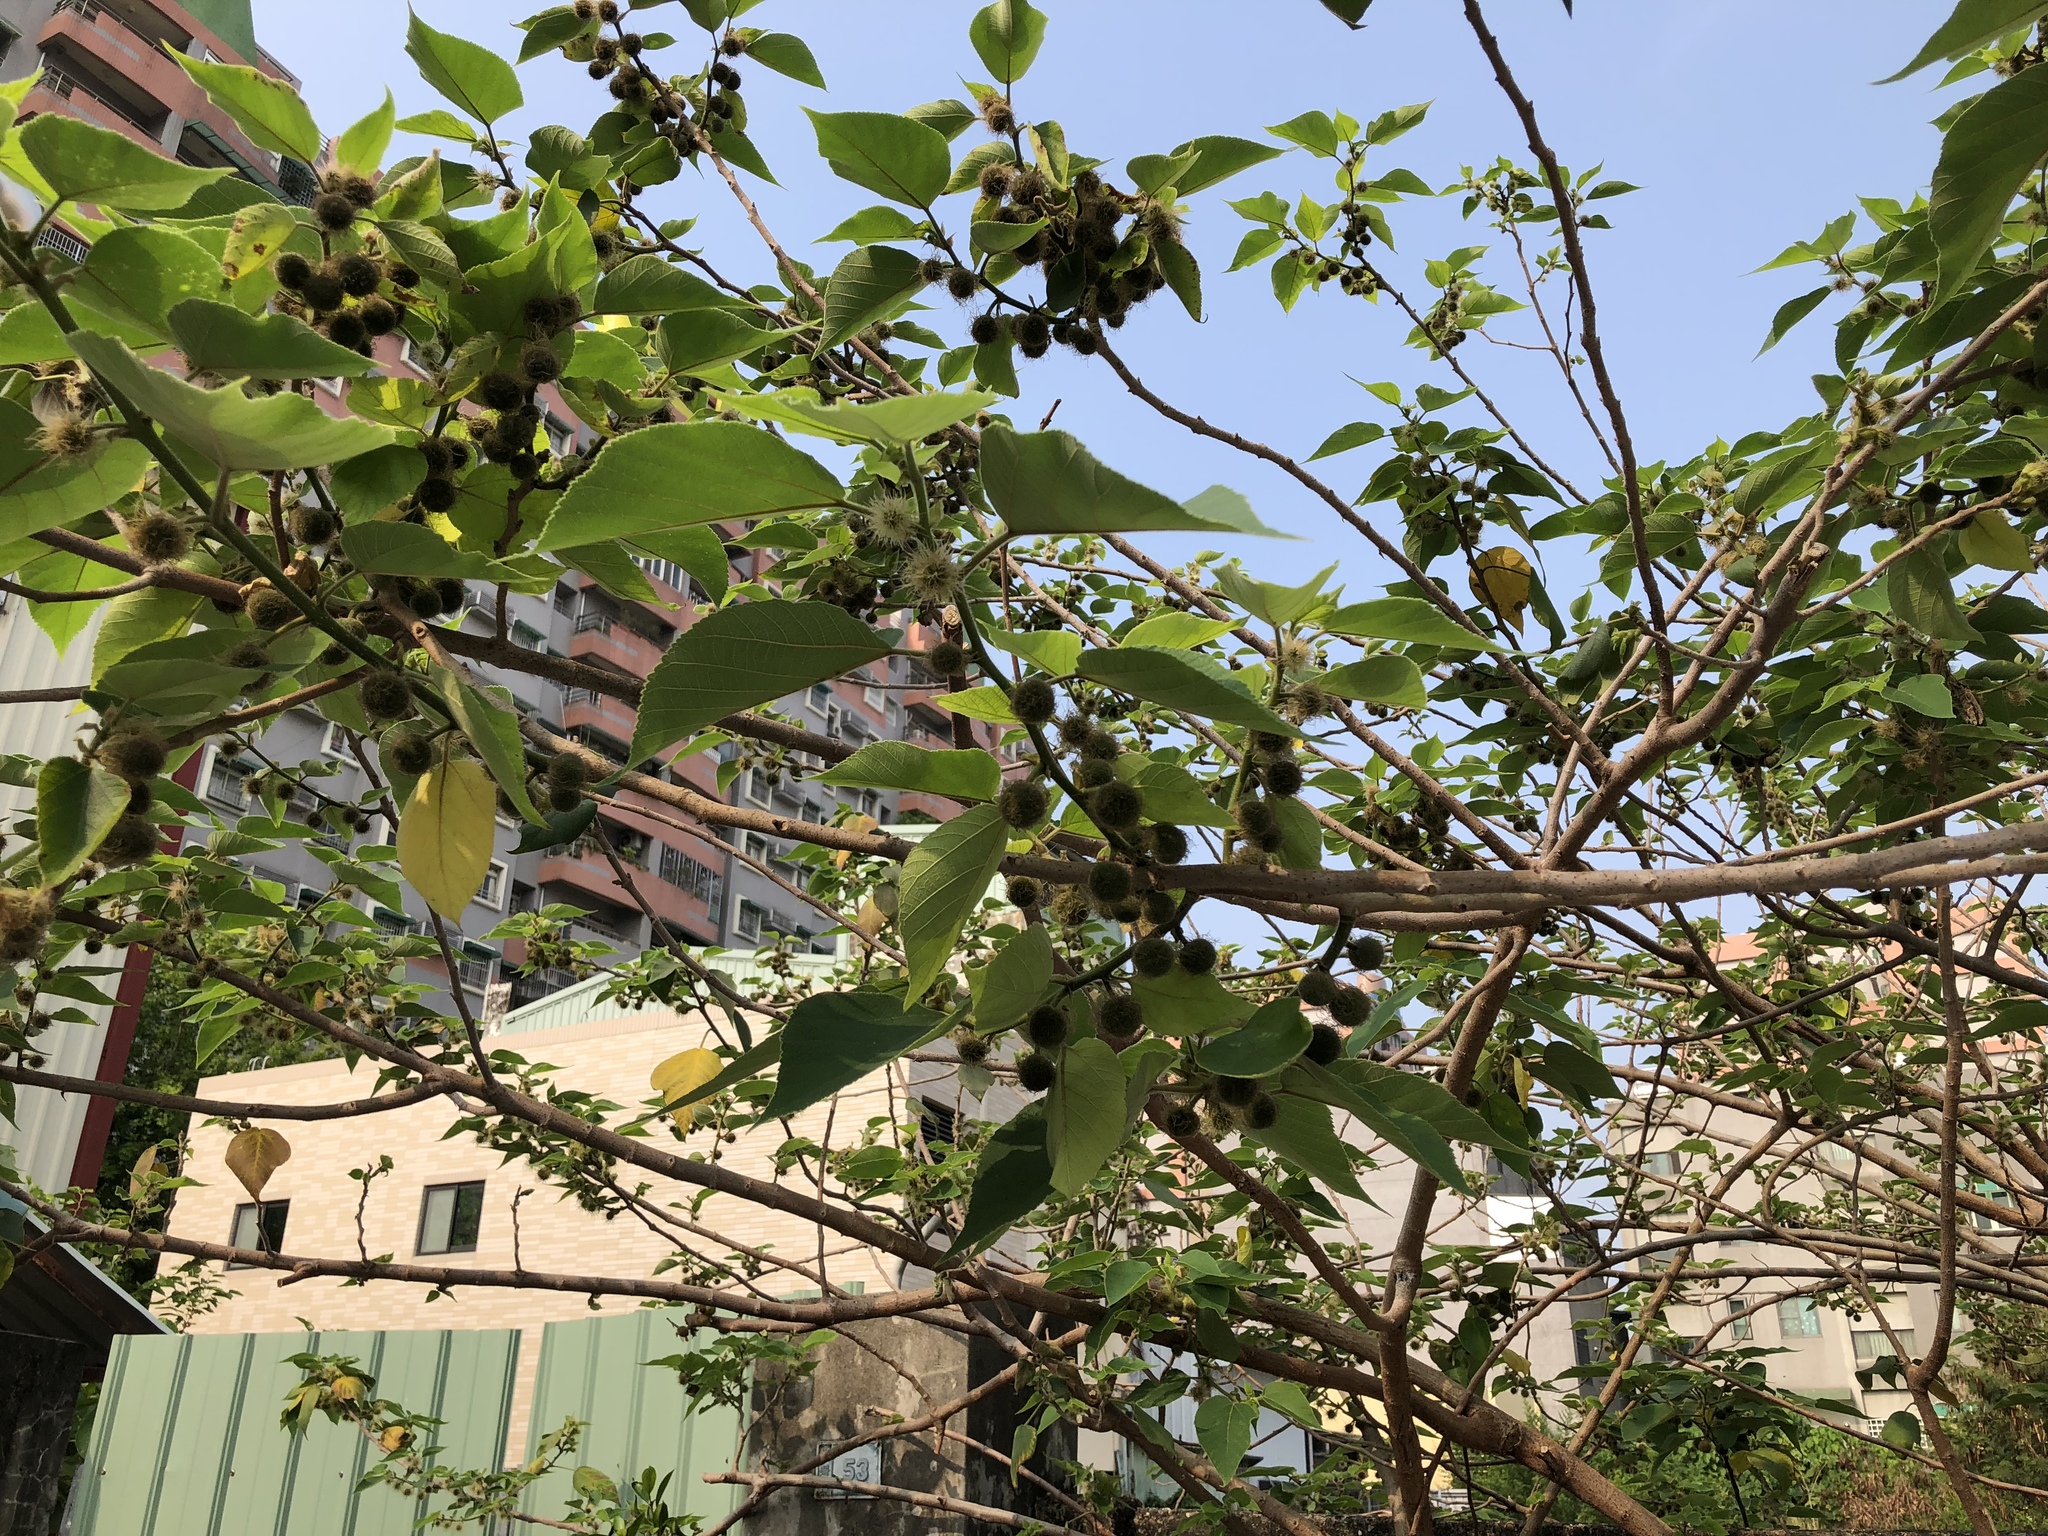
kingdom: Plantae
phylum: Tracheophyta
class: Magnoliopsida
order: Rosales
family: Moraceae
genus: Broussonetia
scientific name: Broussonetia papyrifera
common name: Paper mulberry
